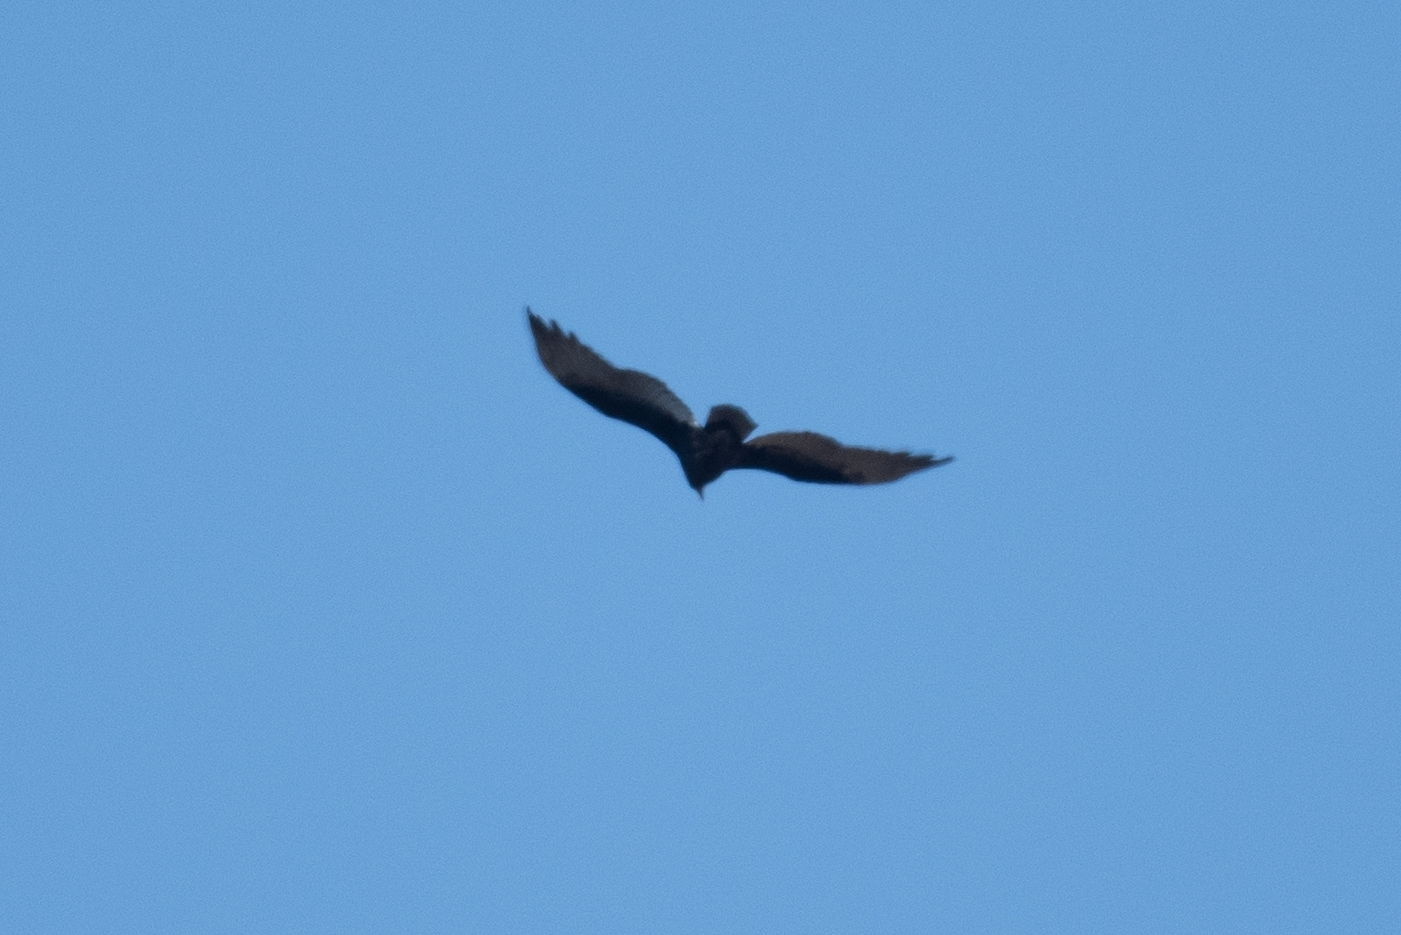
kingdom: Animalia
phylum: Chordata
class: Aves
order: Accipitriformes
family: Cathartidae
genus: Cathartes
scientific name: Cathartes aura
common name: Turkey vulture
